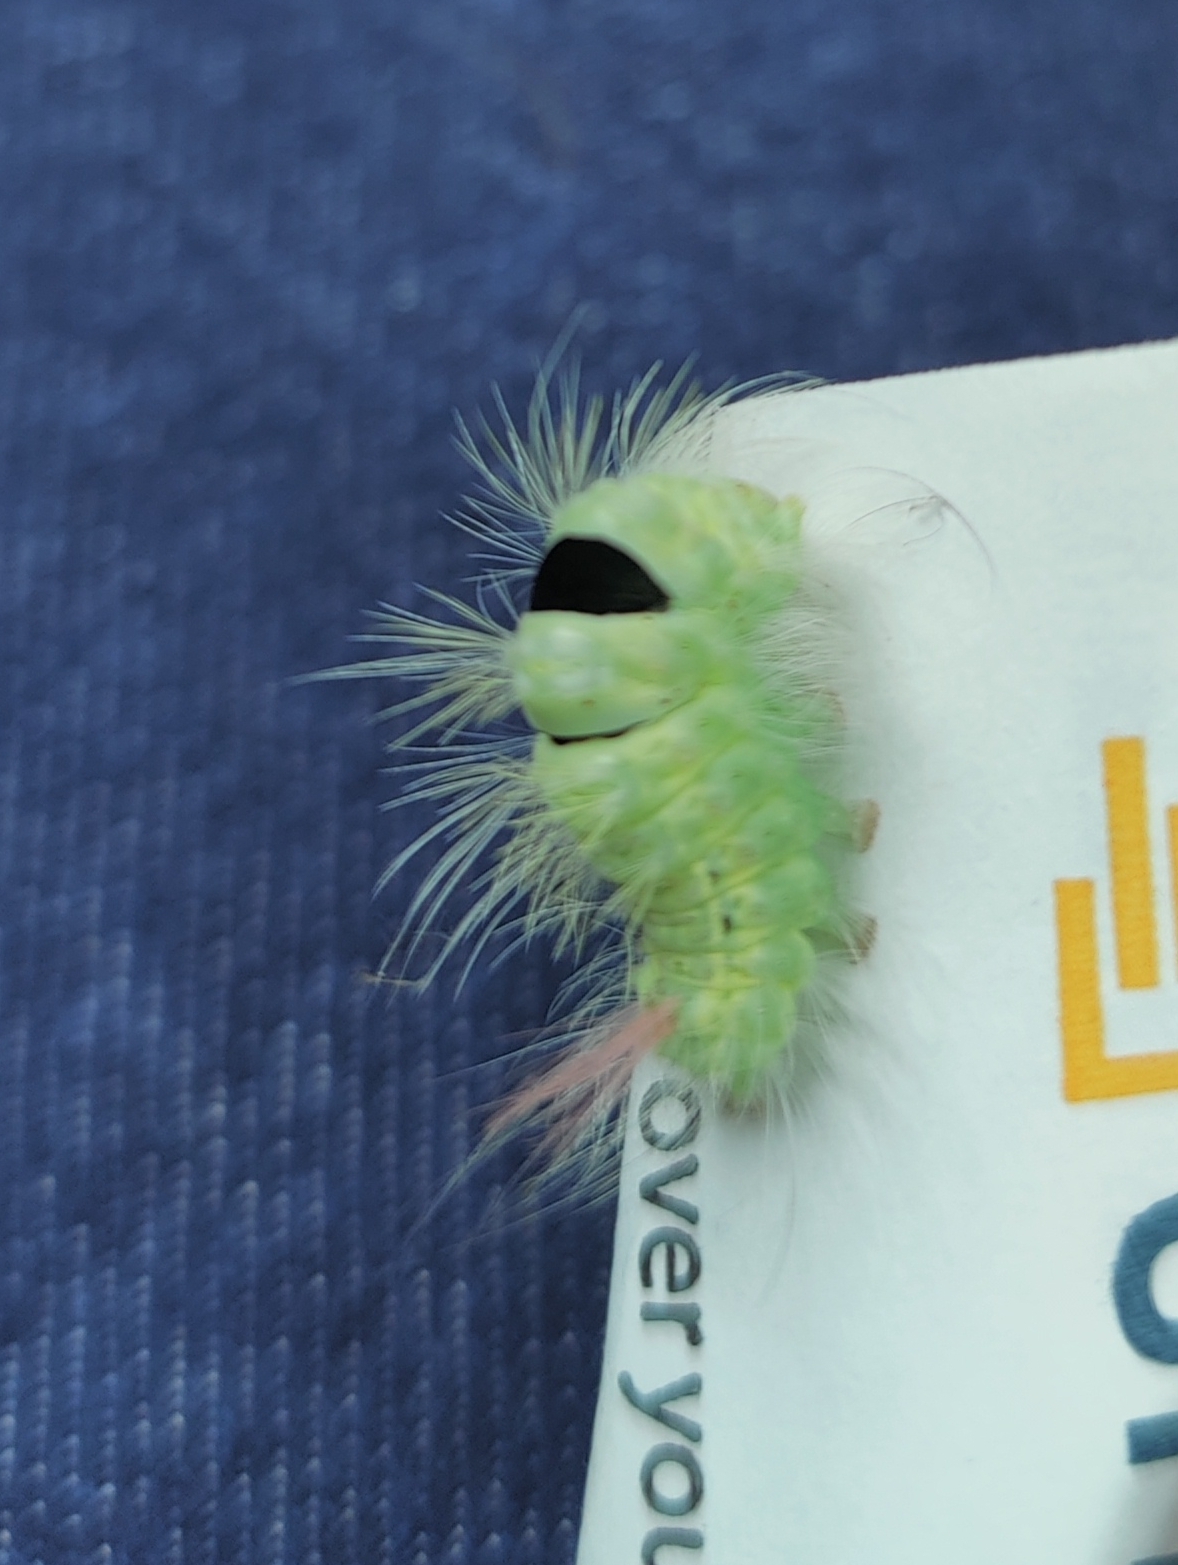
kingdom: Animalia
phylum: Arthropoda
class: Insecta
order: Lepidoptera
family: Erebidae
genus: Calliteara
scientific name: Calliteara pudibunda
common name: Pale tussock
